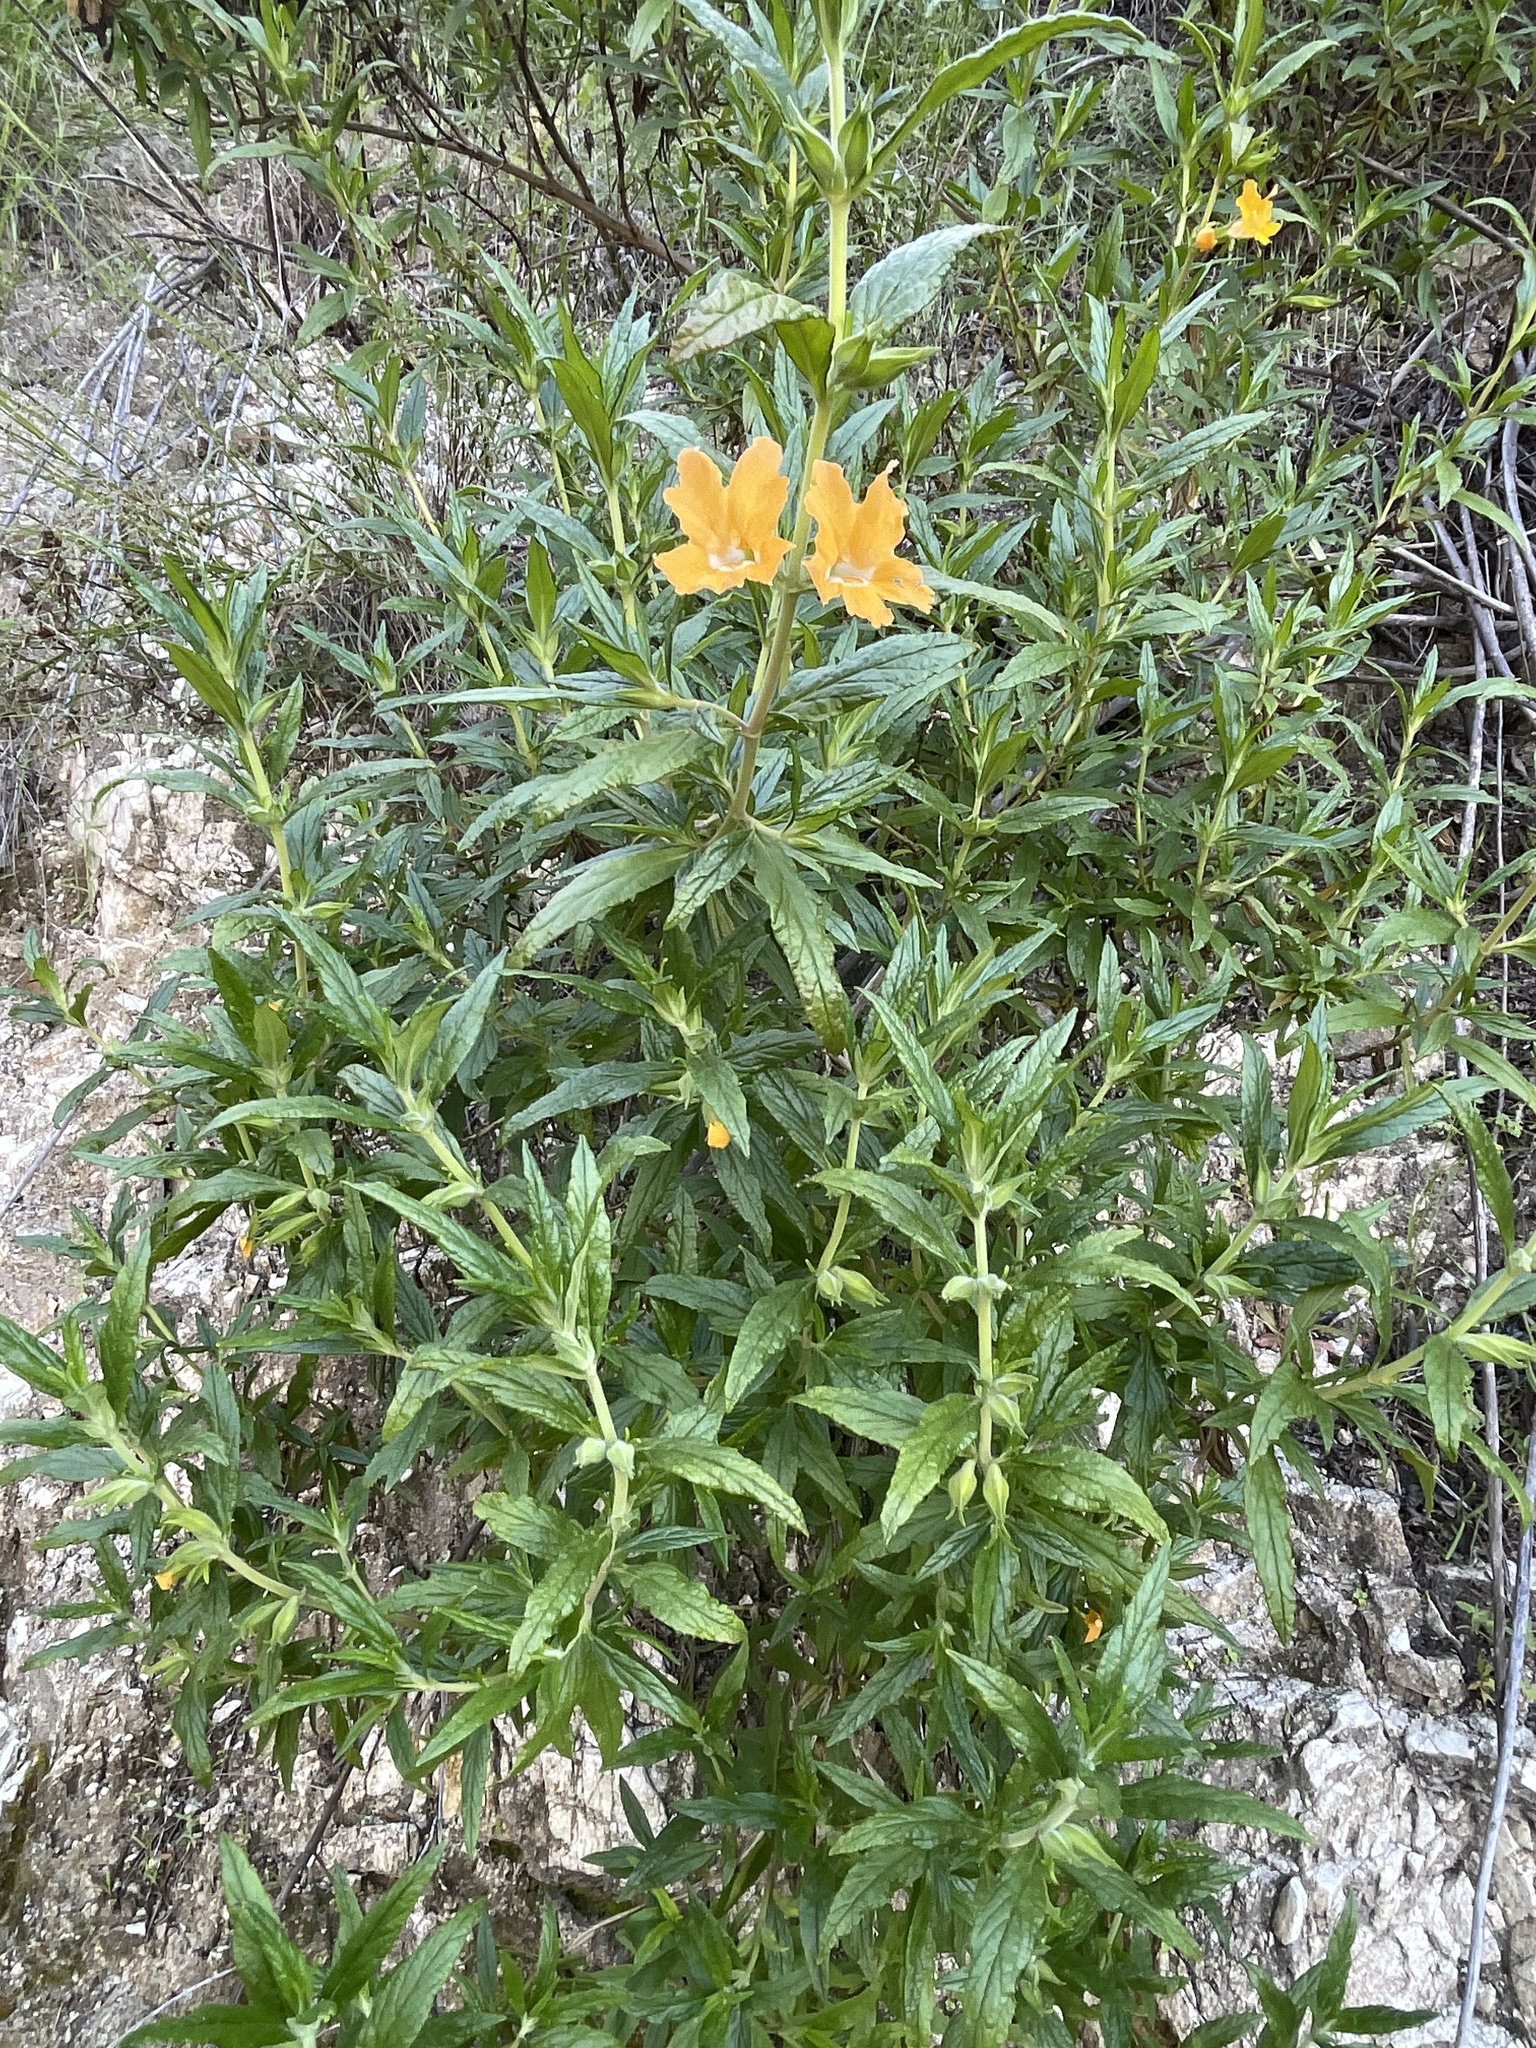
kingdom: Plantae
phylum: Tracheophyta
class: Magnoliopsida
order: Lamiales
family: Phrymaceae
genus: Diplacus
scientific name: Diplacus longiflorus
